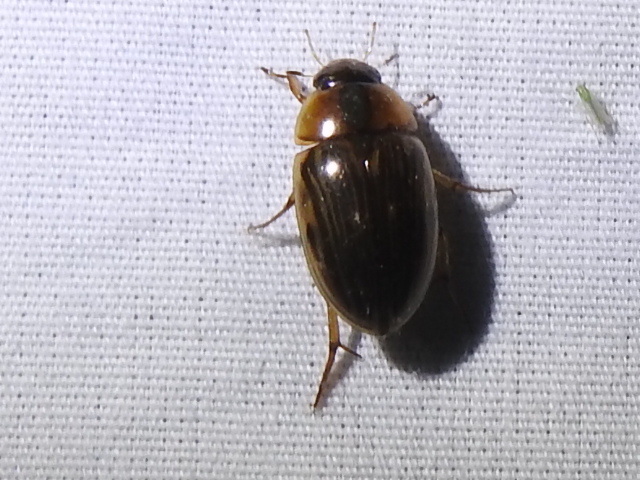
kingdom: Animalia
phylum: Arthropoda
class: Insecta
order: Coleoptera
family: Hydrophilidae
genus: Tropisternus
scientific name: Tropisternus collaris
